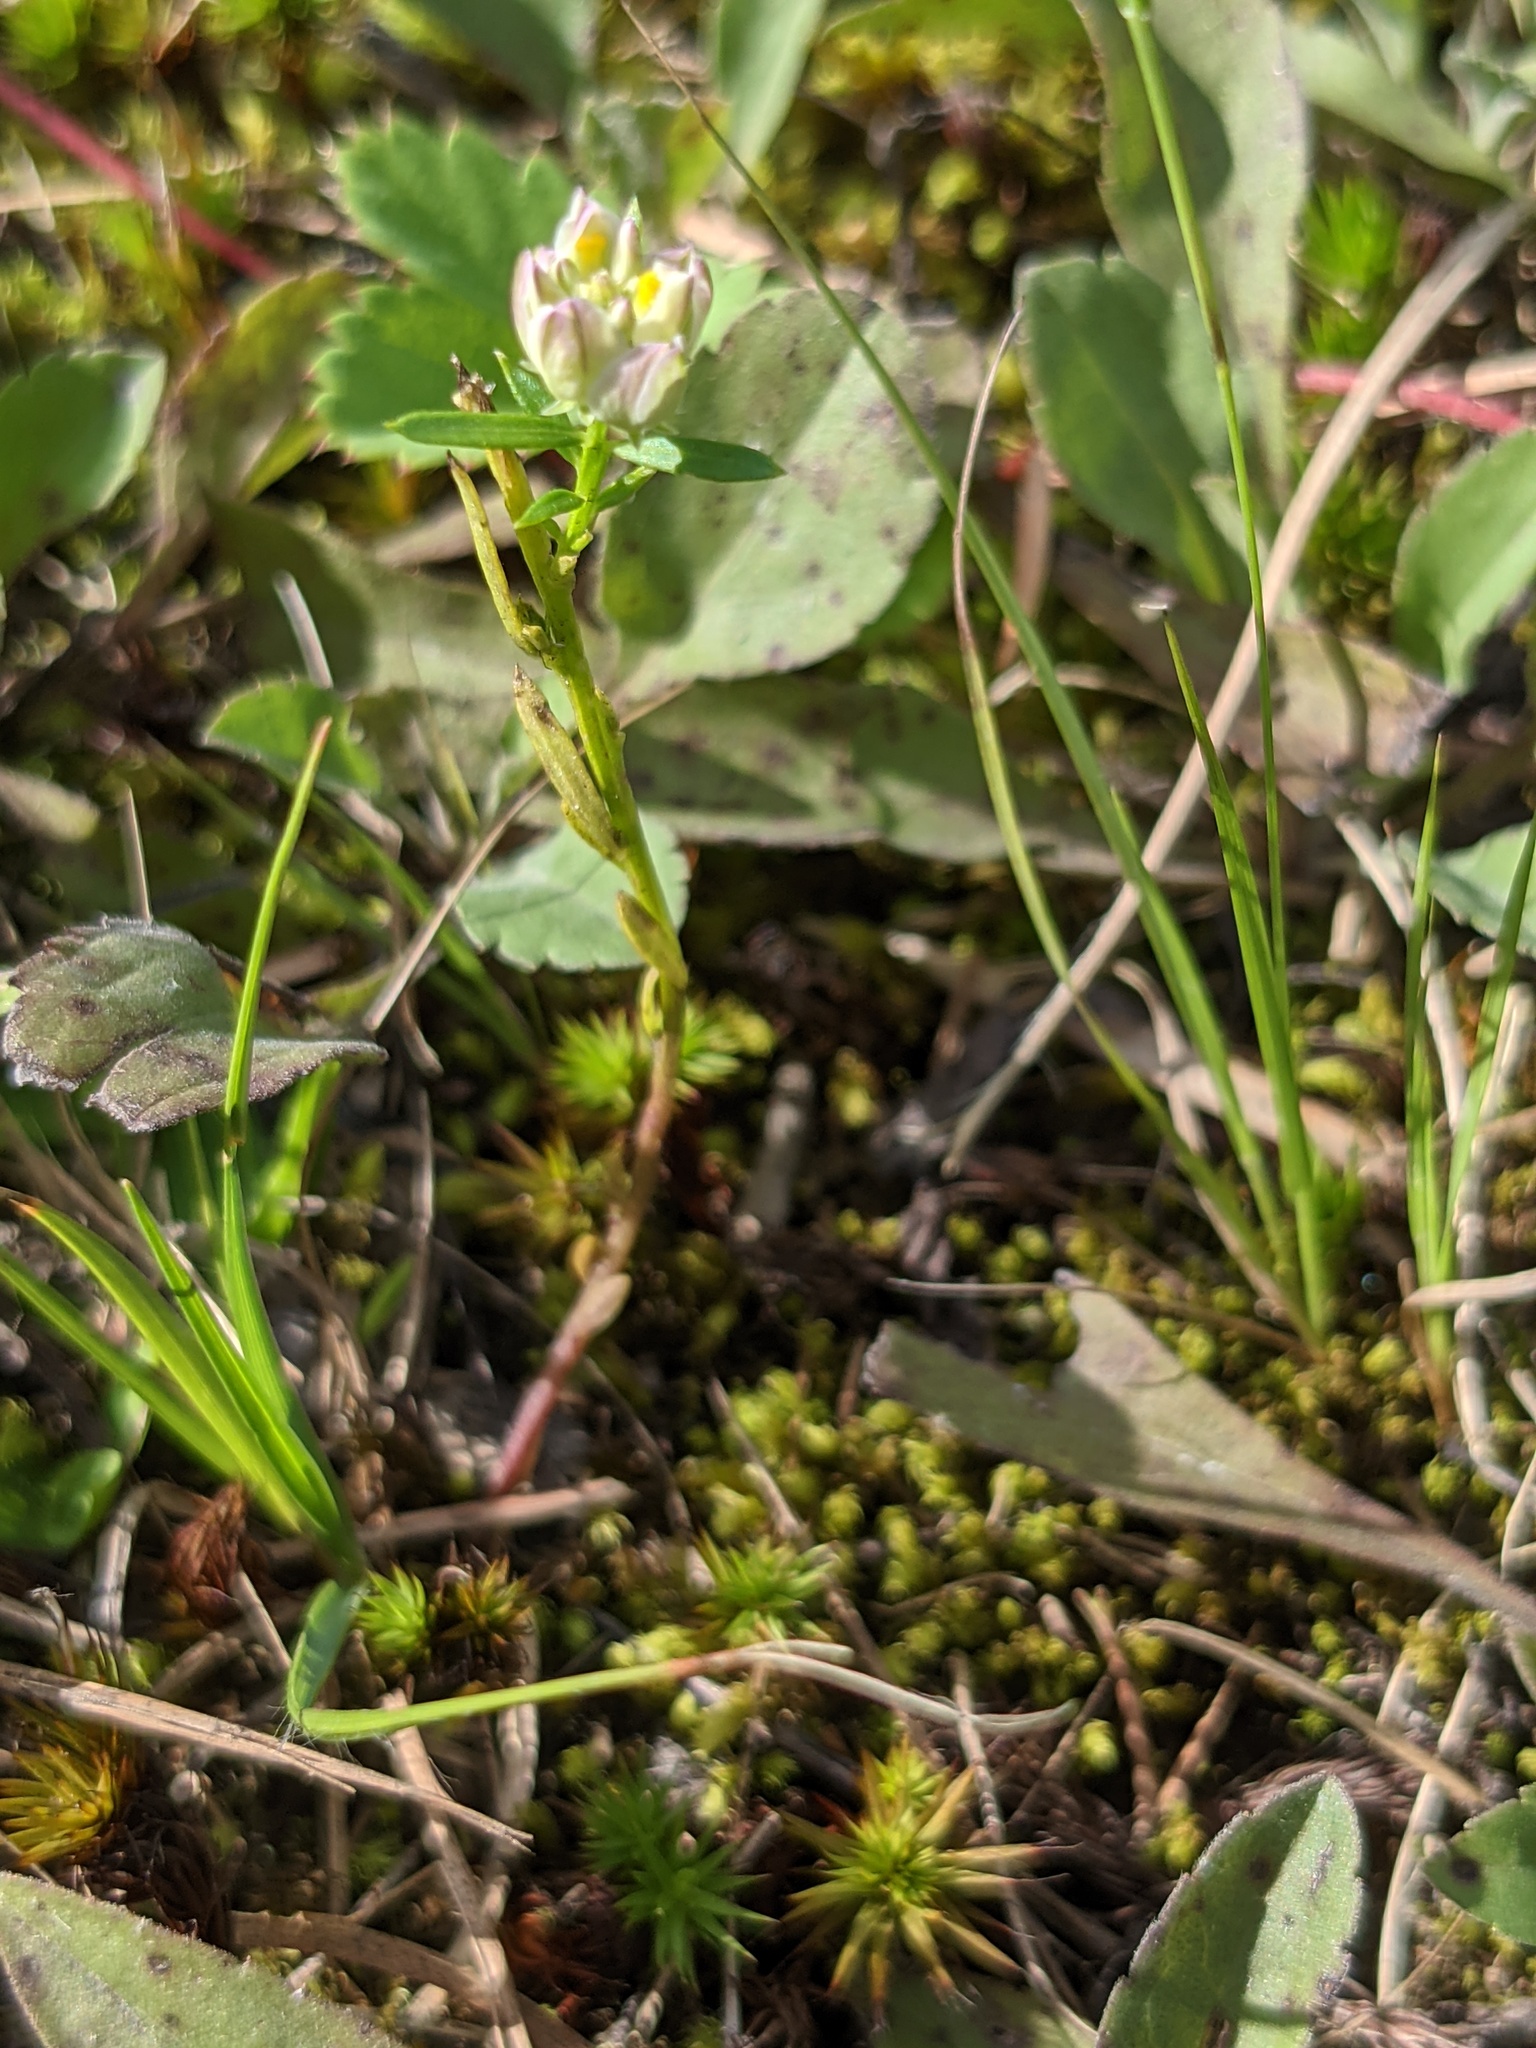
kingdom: Plantae
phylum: Tracheophyta
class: Magnoliopsida
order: Fabales
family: Polygalaceae
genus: Polygala
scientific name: Polygala sanguinea
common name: Blood milkwort
